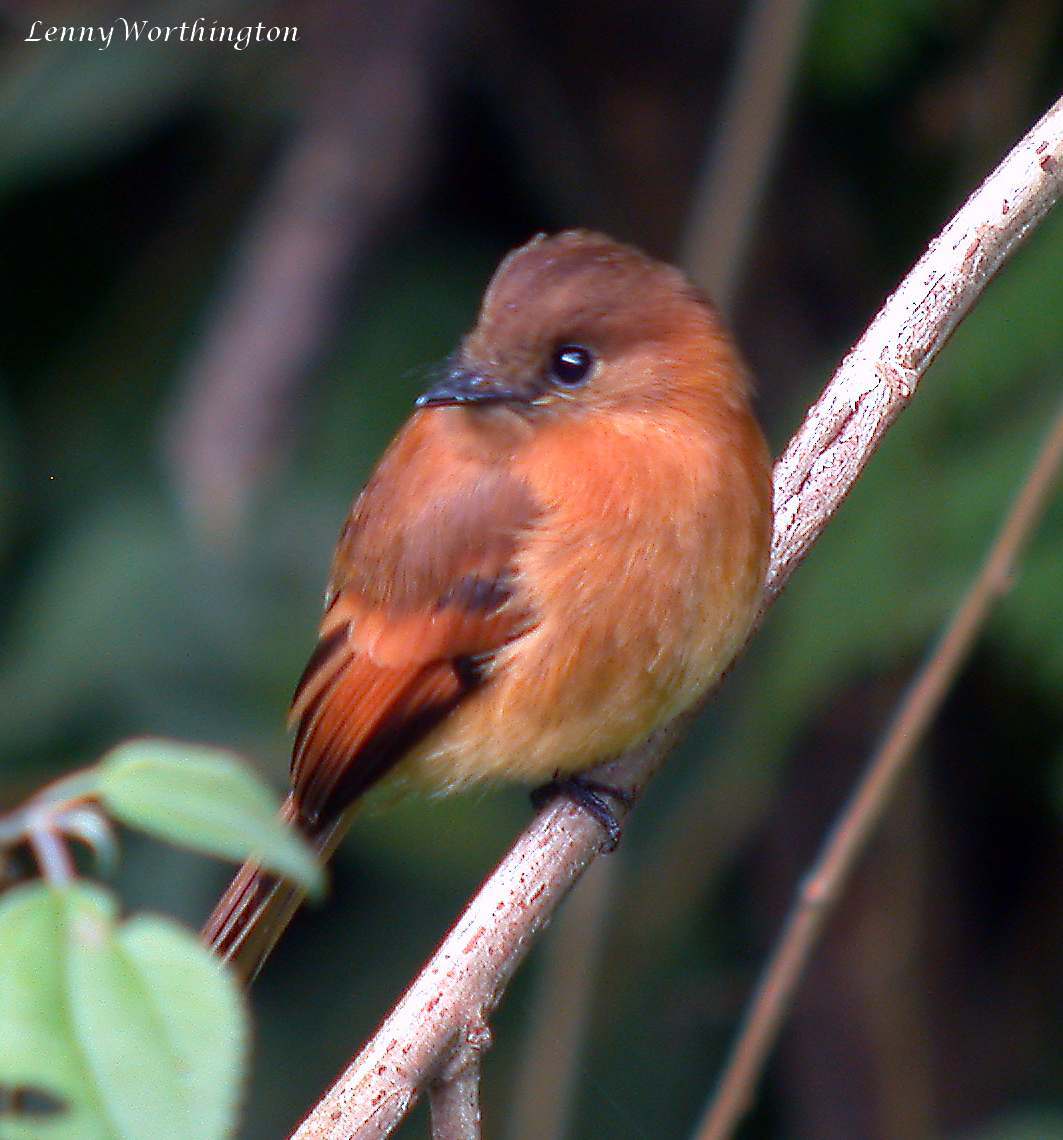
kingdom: Animalia
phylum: Chordata
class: Aves
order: Passeriformes
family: Tyrannidae
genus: Pyrrhomyias
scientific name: Pyrrhomyias cinnamomeus
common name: Cinnamon flycatcher
